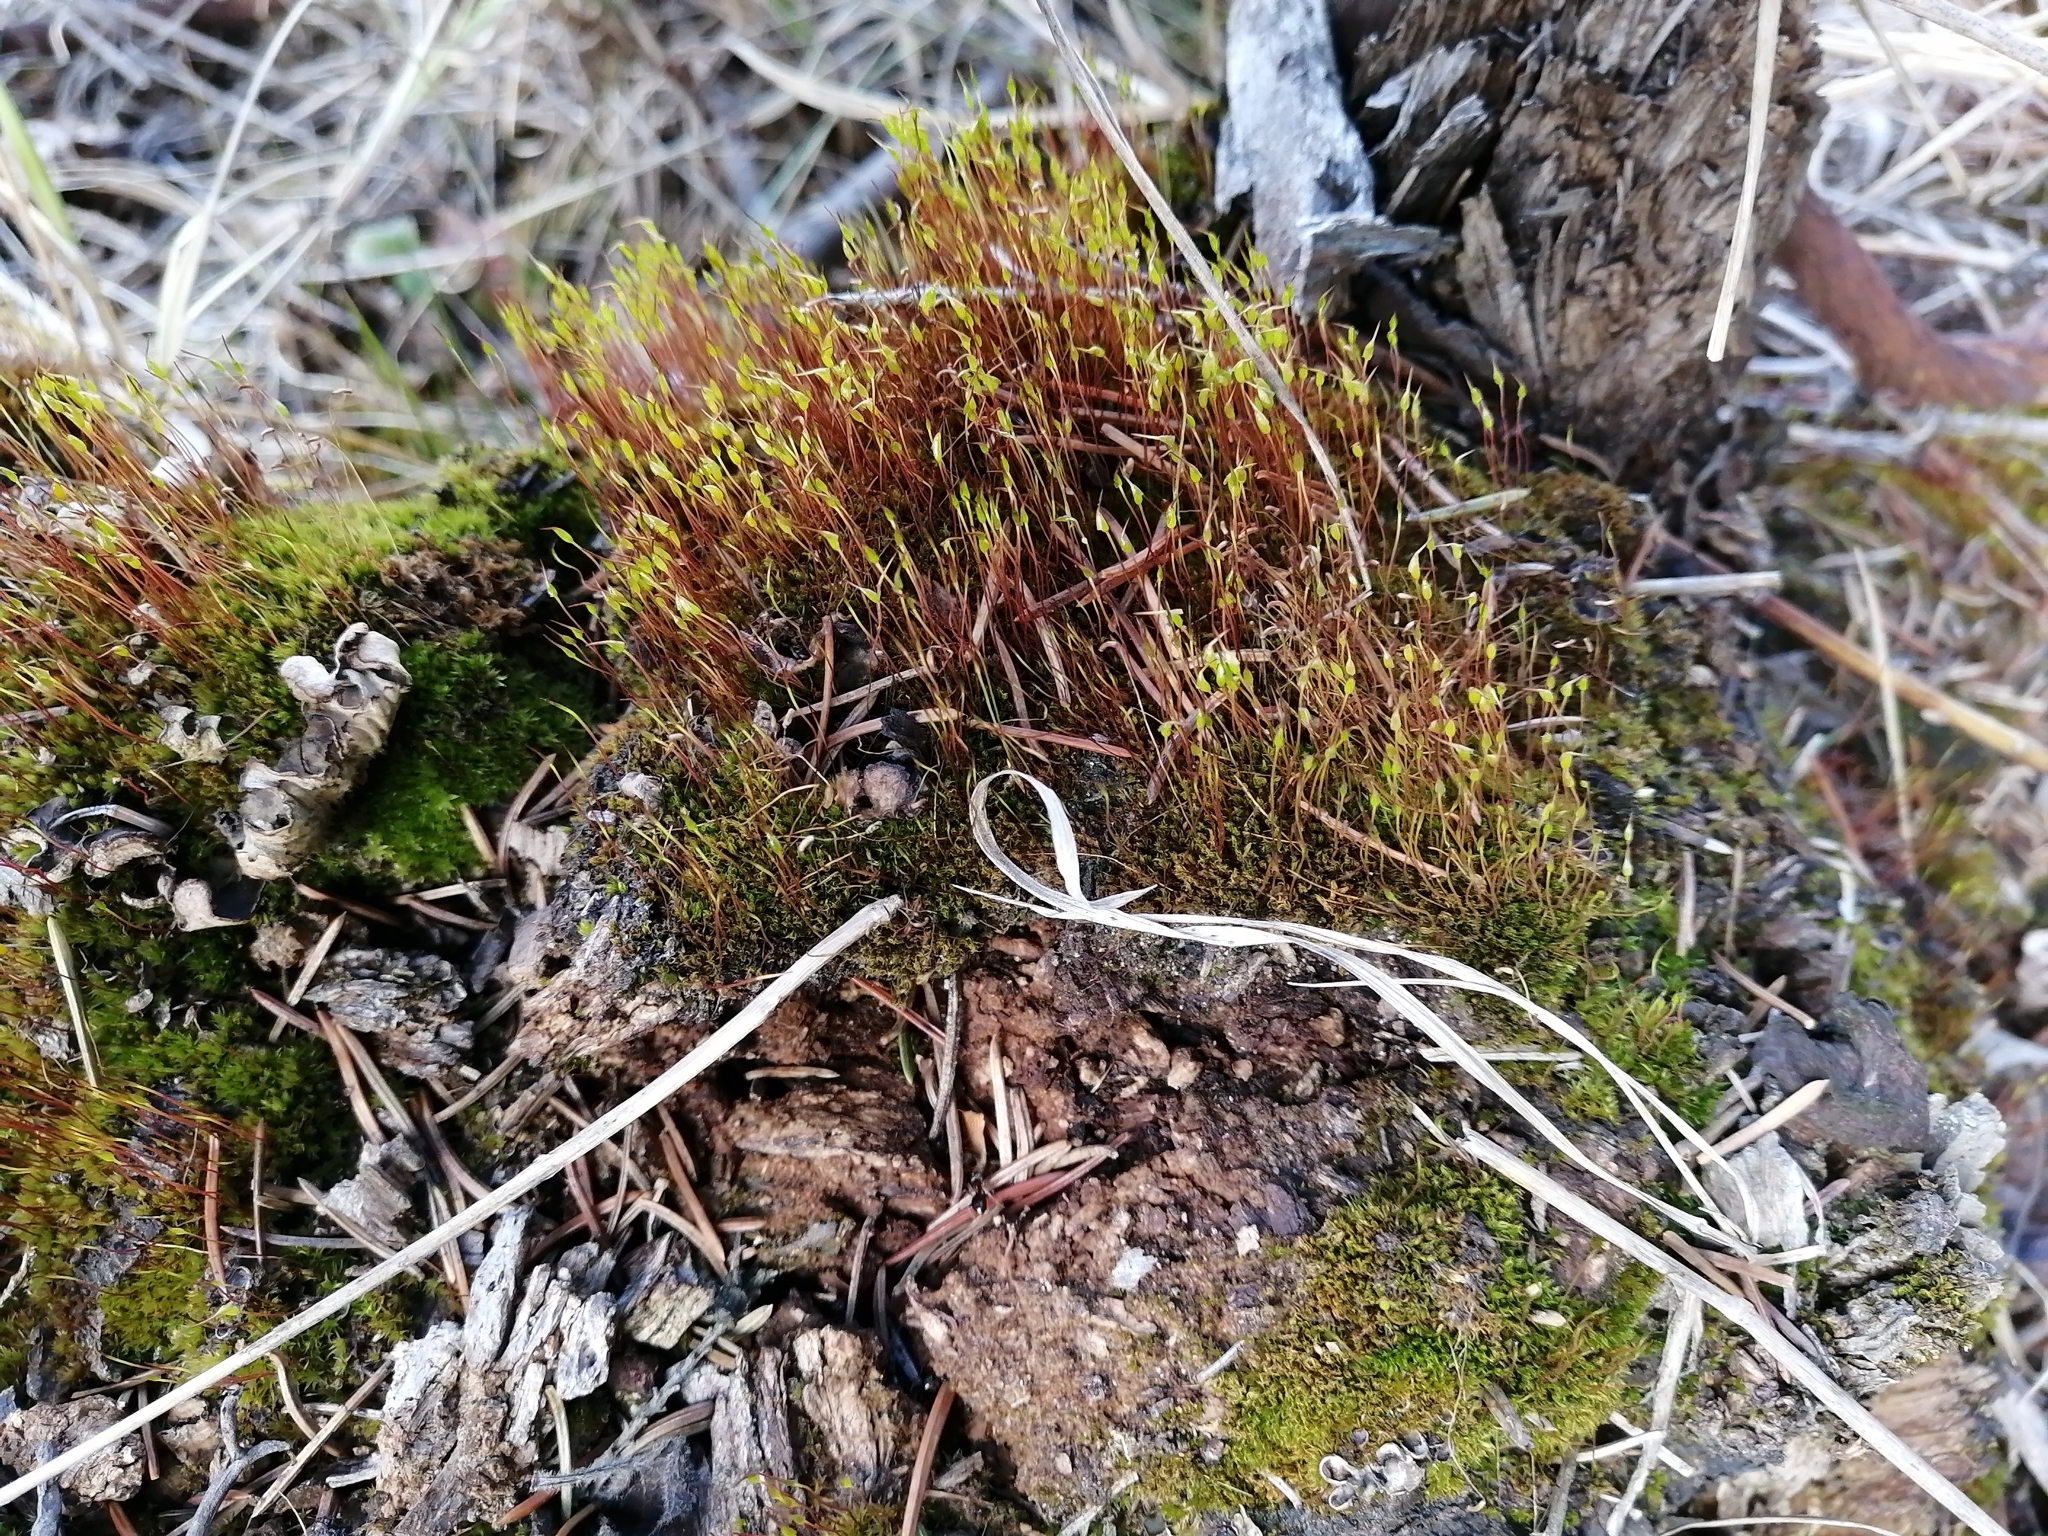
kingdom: Plantae
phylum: Bryophyta
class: Bryopsida
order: Dicranales
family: Ditrichaceae
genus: Ceratodon
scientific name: Ceratodon purpureus
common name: Redshank
